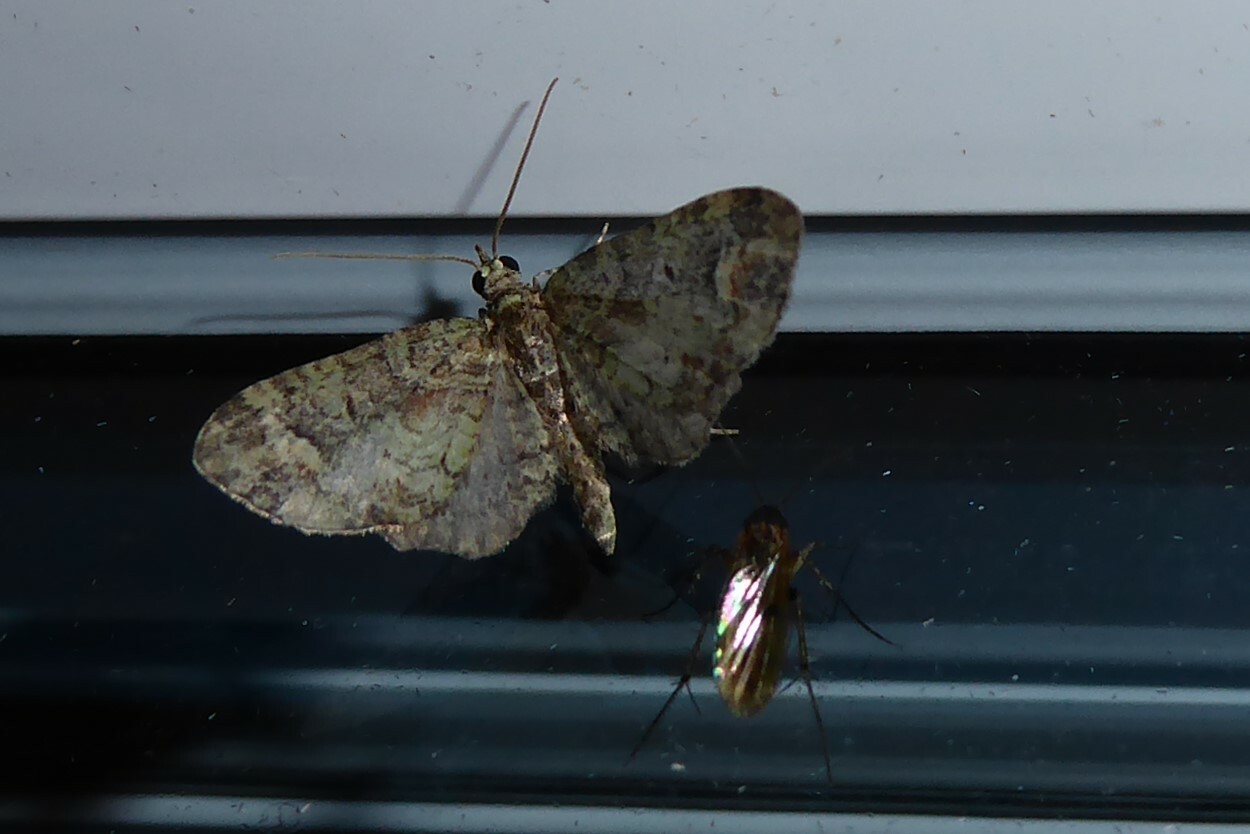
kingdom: Animalia
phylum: Arthropoda
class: Insecta
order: Lepidoptera
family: Geometridae
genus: Idaea
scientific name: Idaea mutanda
